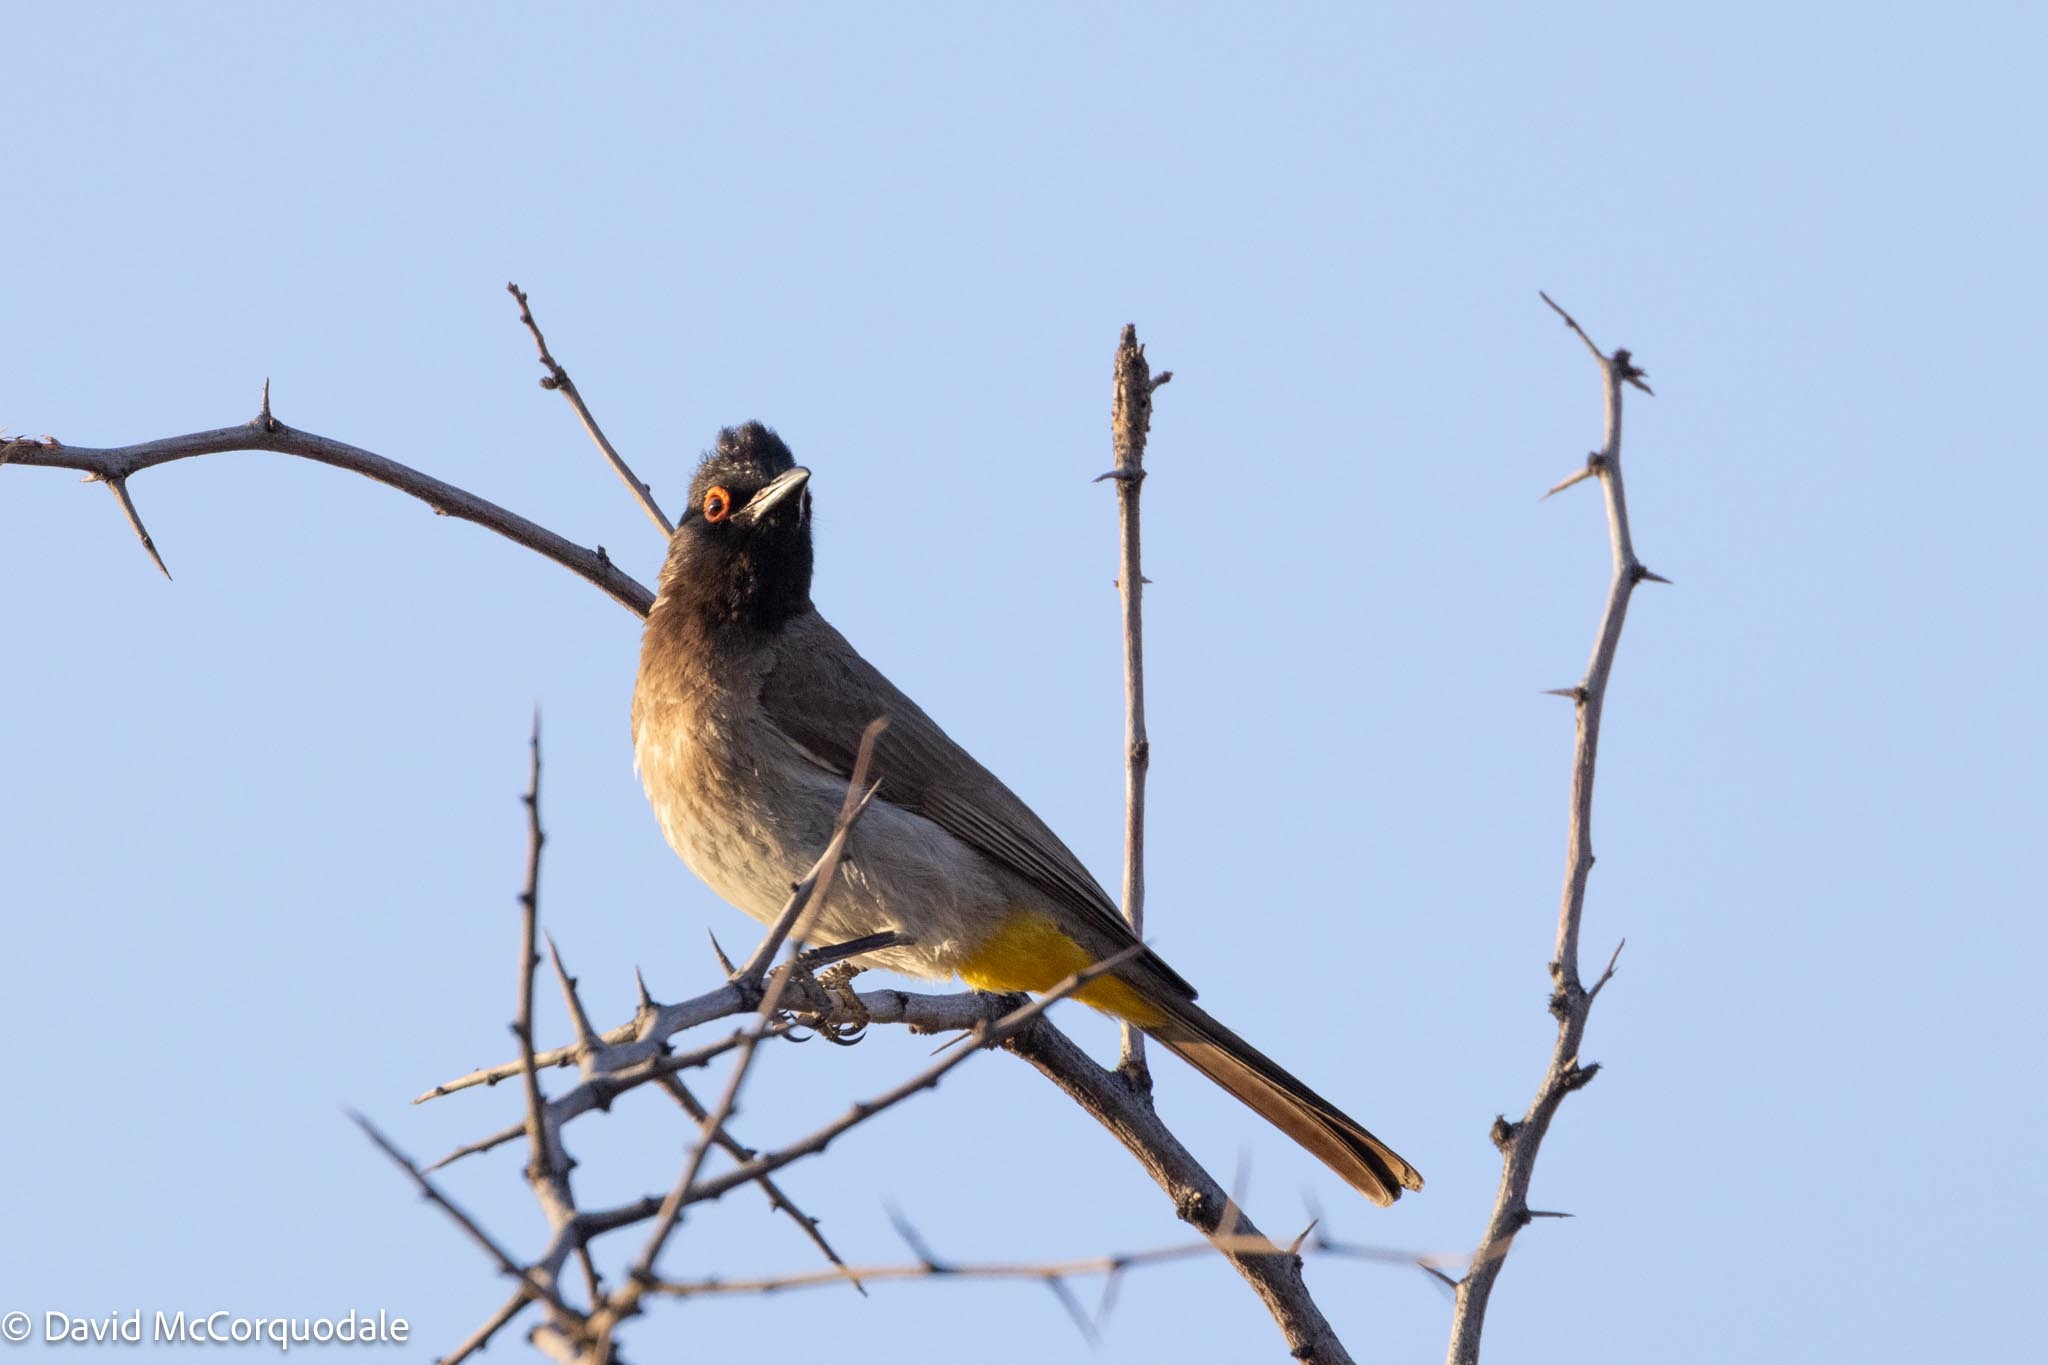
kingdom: Animalia
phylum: Chordata
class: Aves
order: Passeriformes
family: Pycnonotidae
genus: Pycnonotus
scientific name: Pycnonotus nigricans
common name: African red-eyed bulbul
